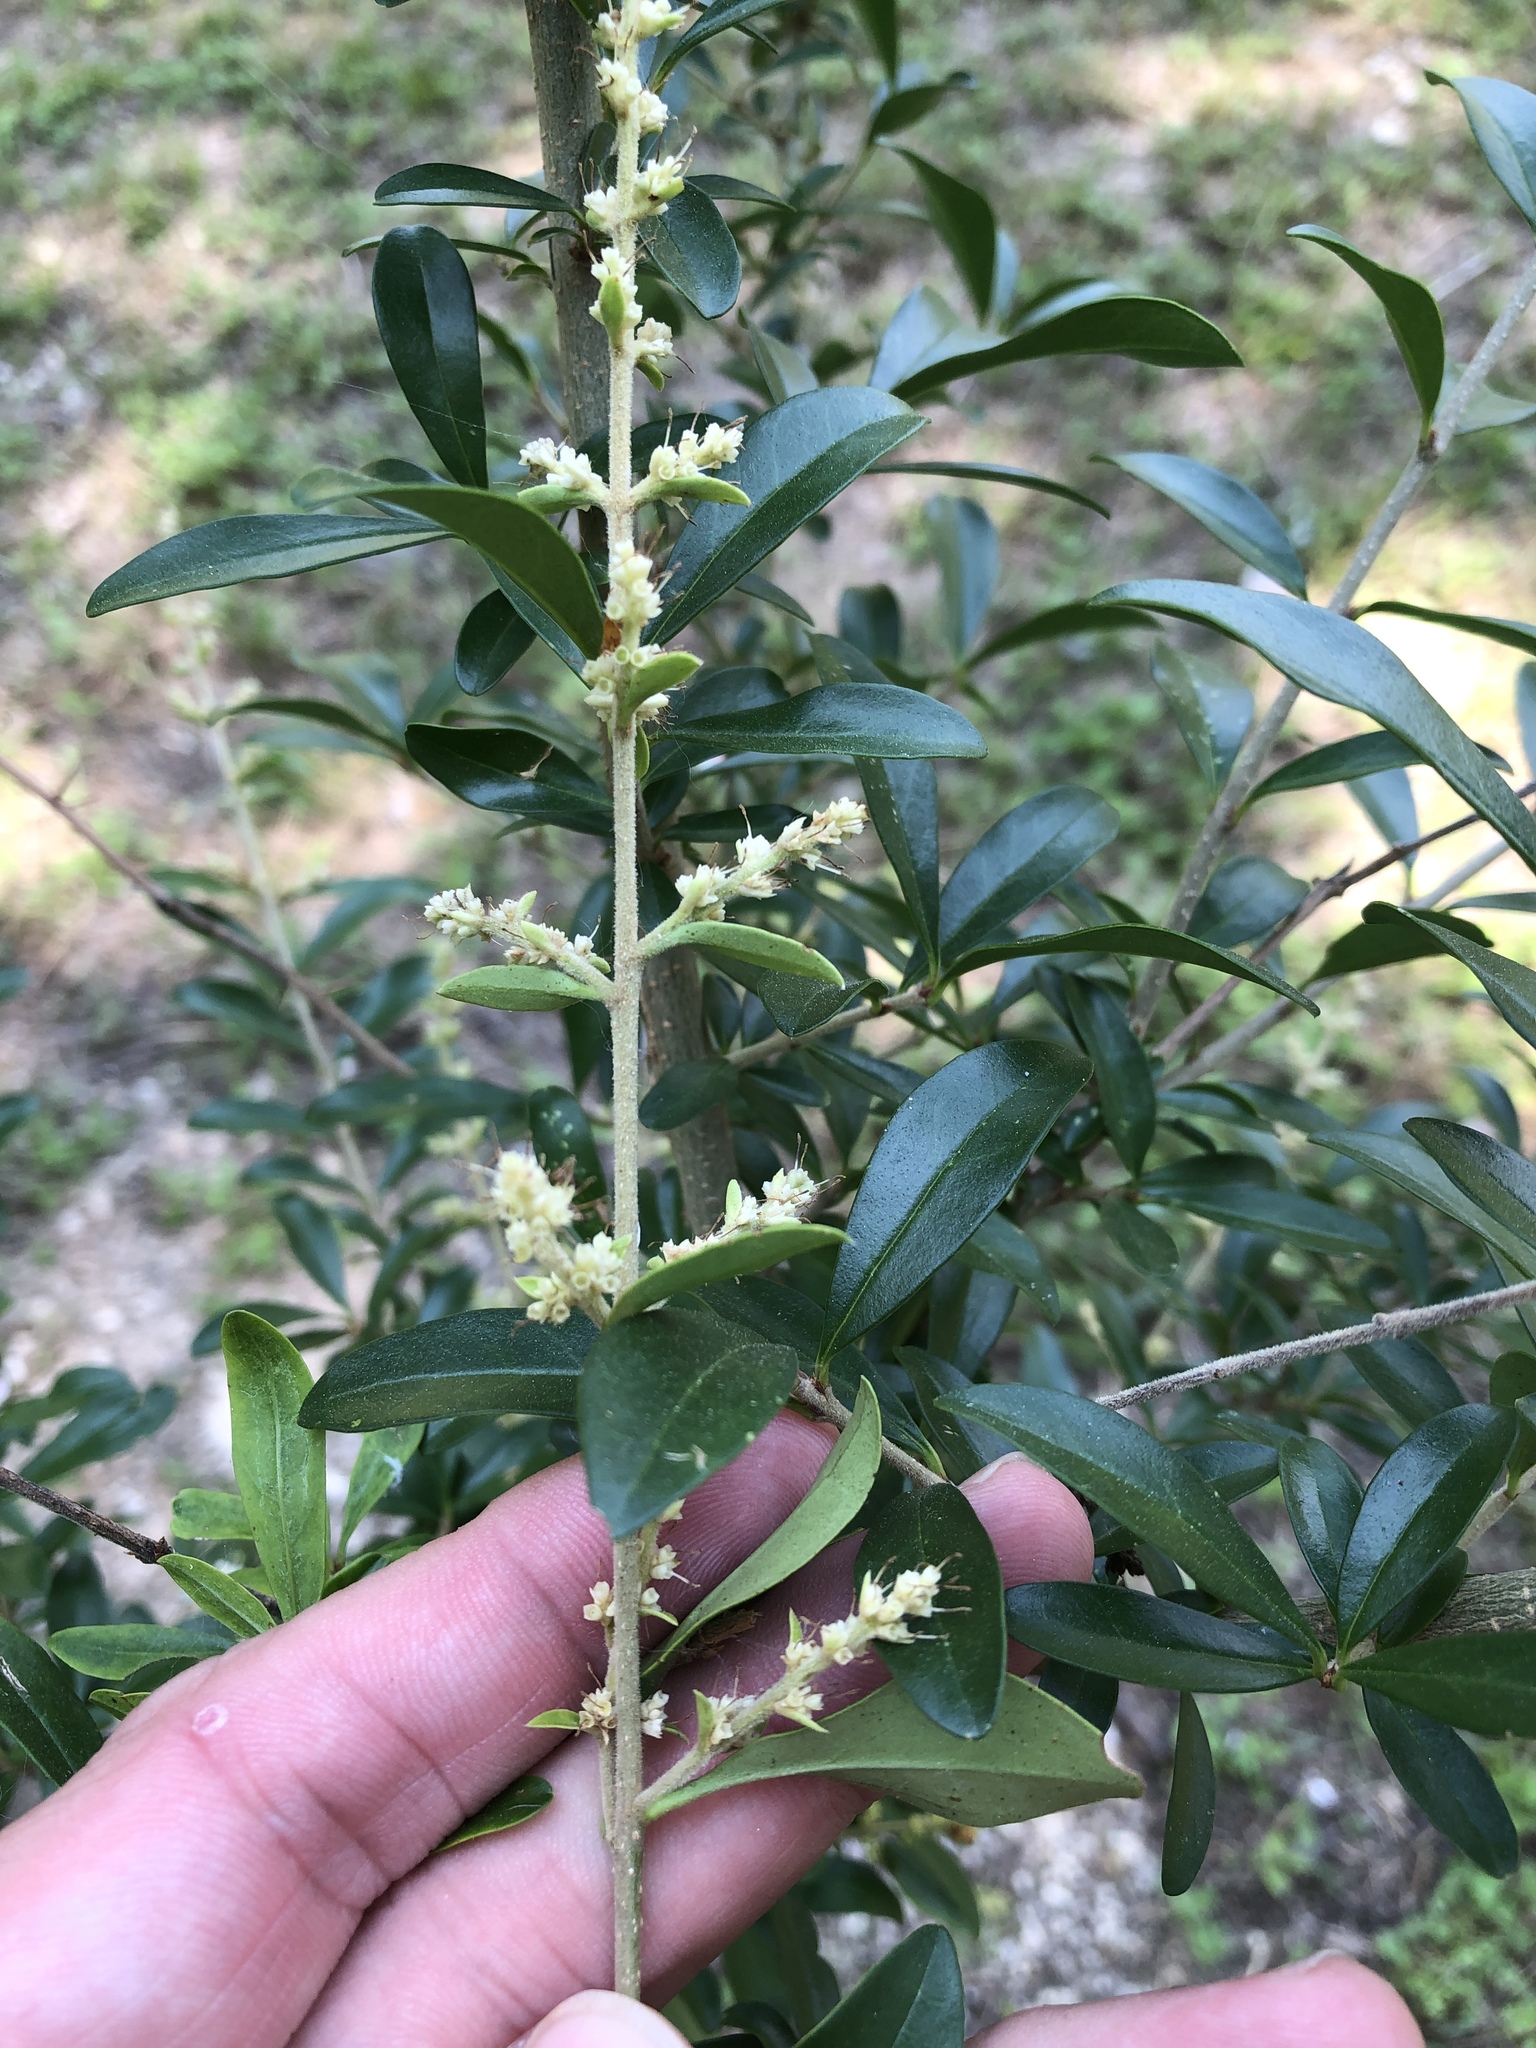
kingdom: Plantae
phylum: Tracheophyta
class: Magnoliopsida
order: Lamiales
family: Oleaceae
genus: Ligustrum
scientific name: Ligustrum quihoui
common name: Waxyleaf privet
